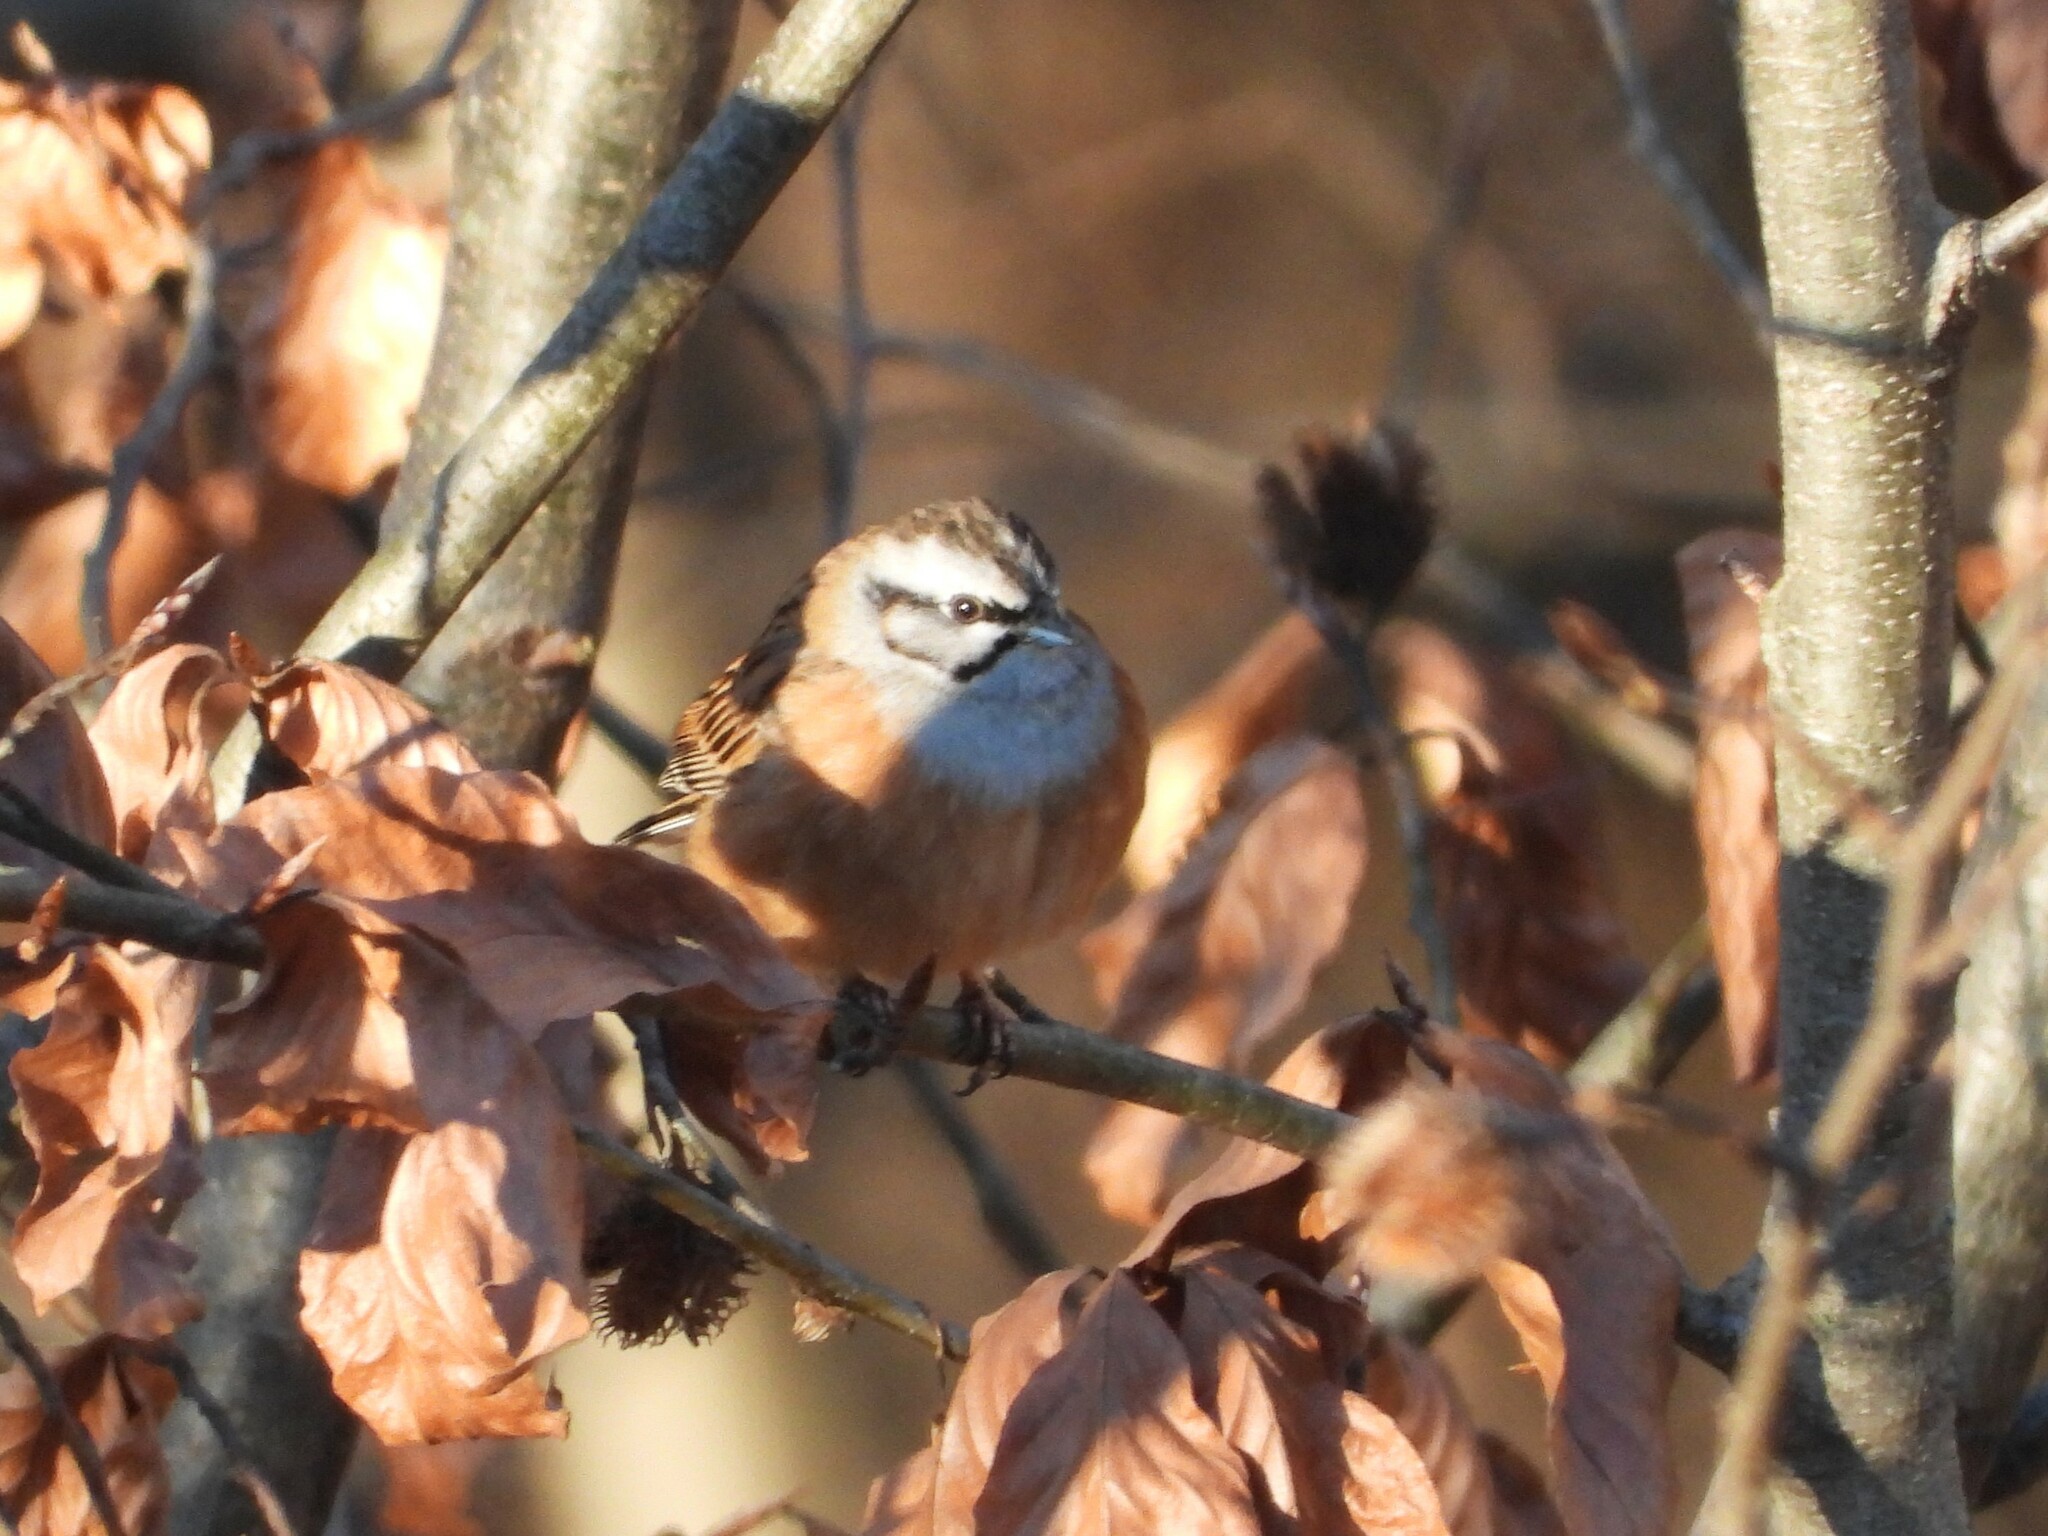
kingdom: Animalia
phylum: Chordata
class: Aves
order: Passeriformes
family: Emberizidae
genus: Emberiza
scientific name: Emberiza cia
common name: Rock bunting
